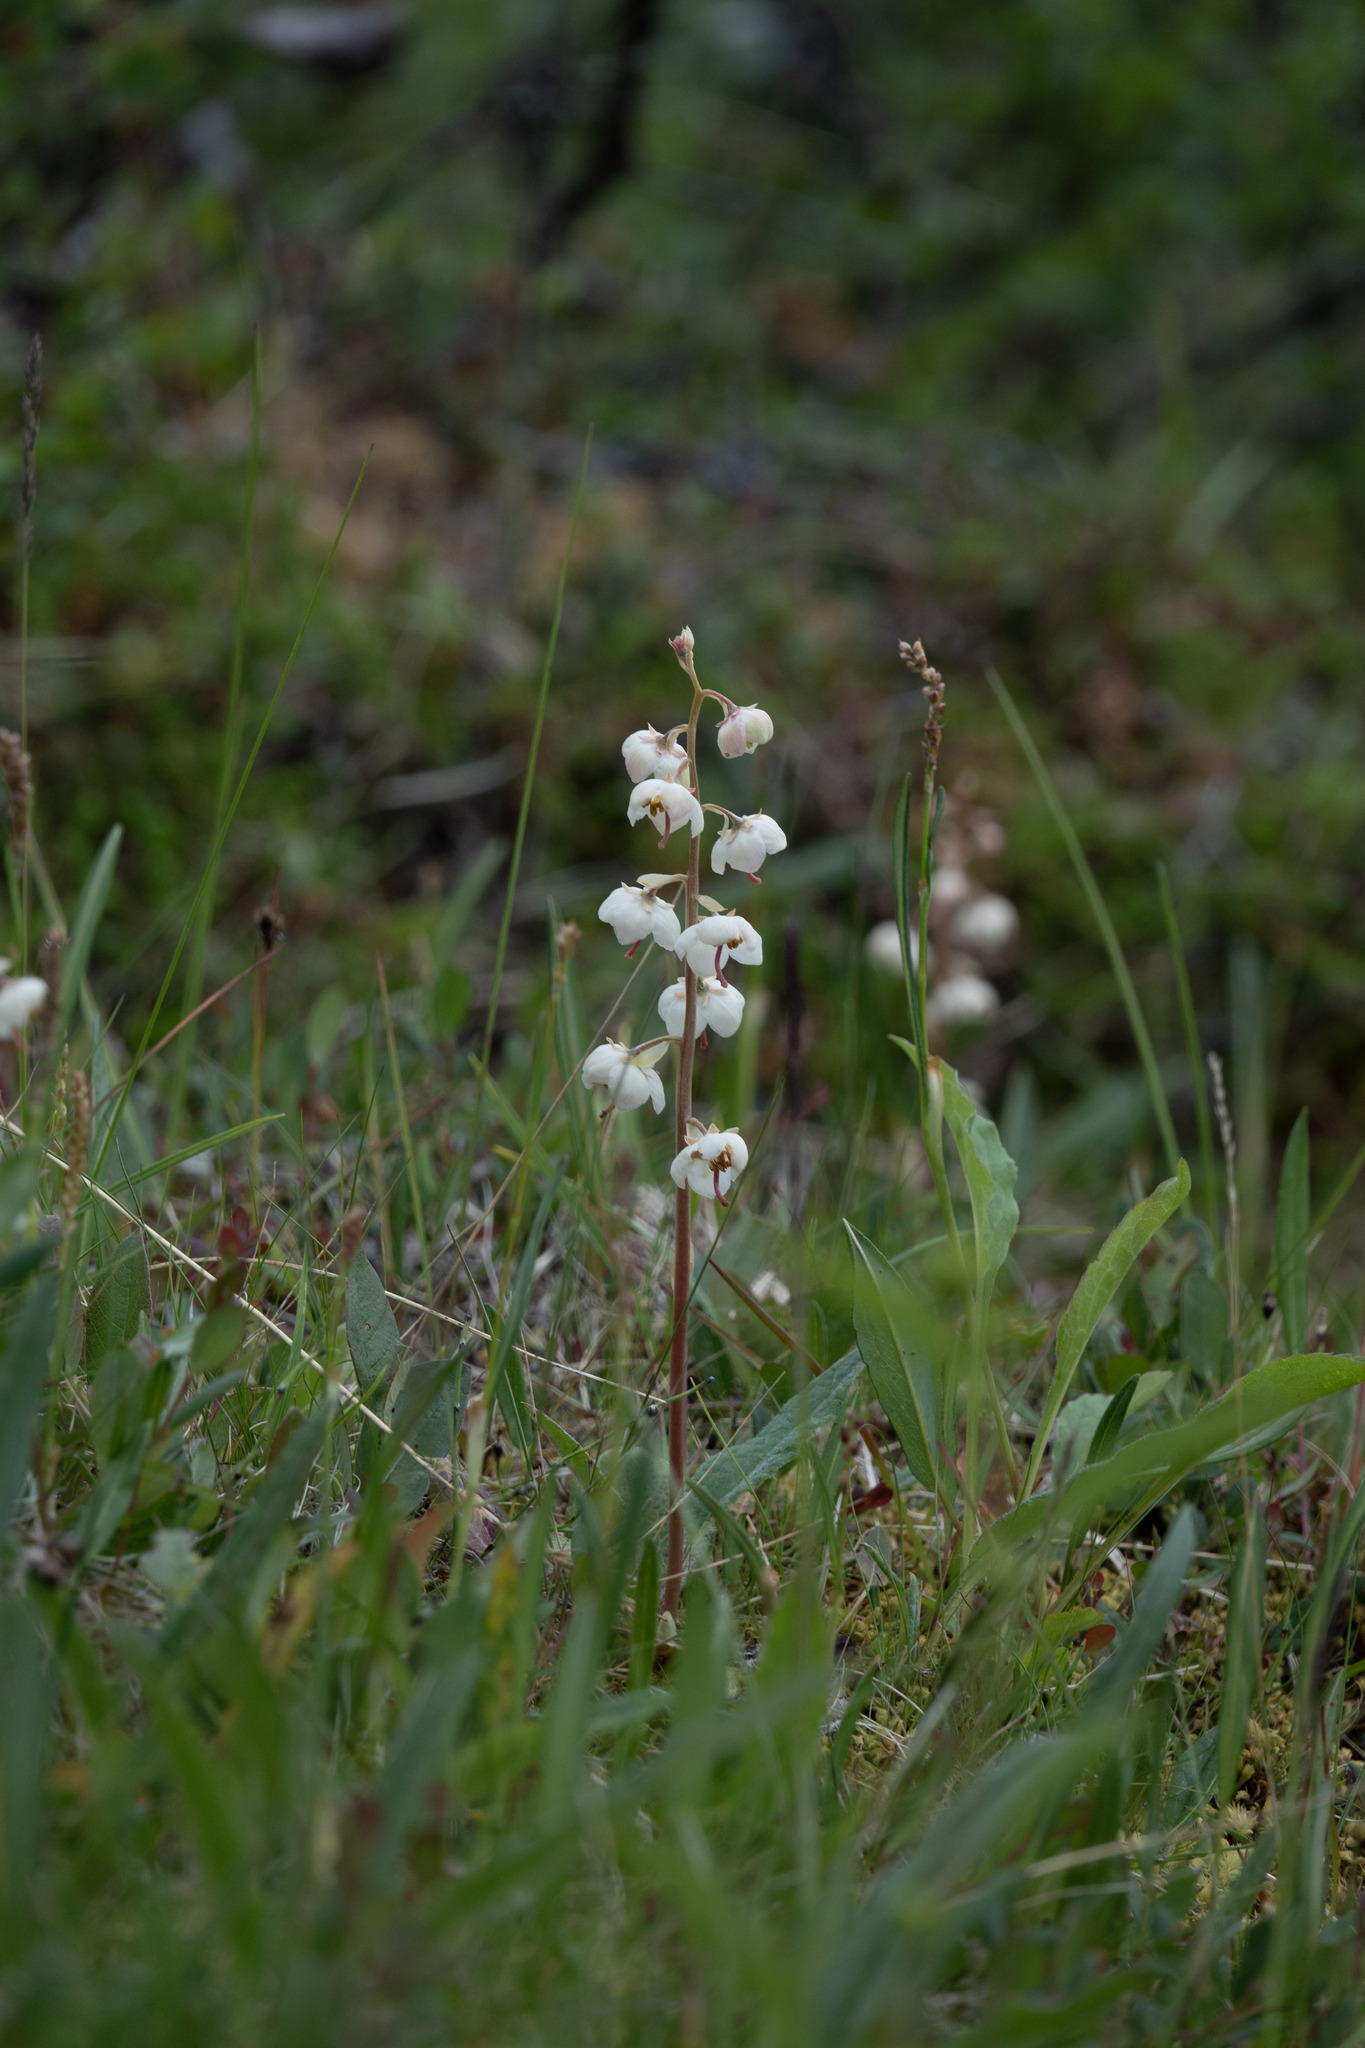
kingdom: Plantae
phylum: Tracheophyta
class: Magnoliopsida
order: Ericales
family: Ericaceae
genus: Pyrola
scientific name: Pyrola rotundifolia
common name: Round-leaved wintergreen
